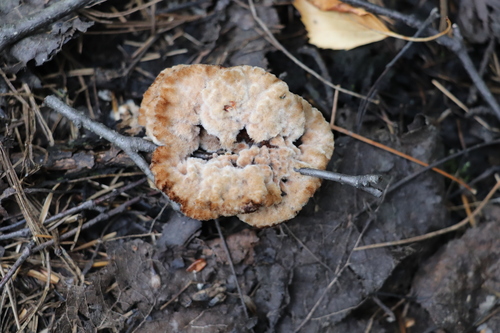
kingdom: Fungi
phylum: Basidiomycota
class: Agaricomycetes
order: Thelephorales
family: Thelephoraceae
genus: Thelephora
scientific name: Thelephora terrestris
